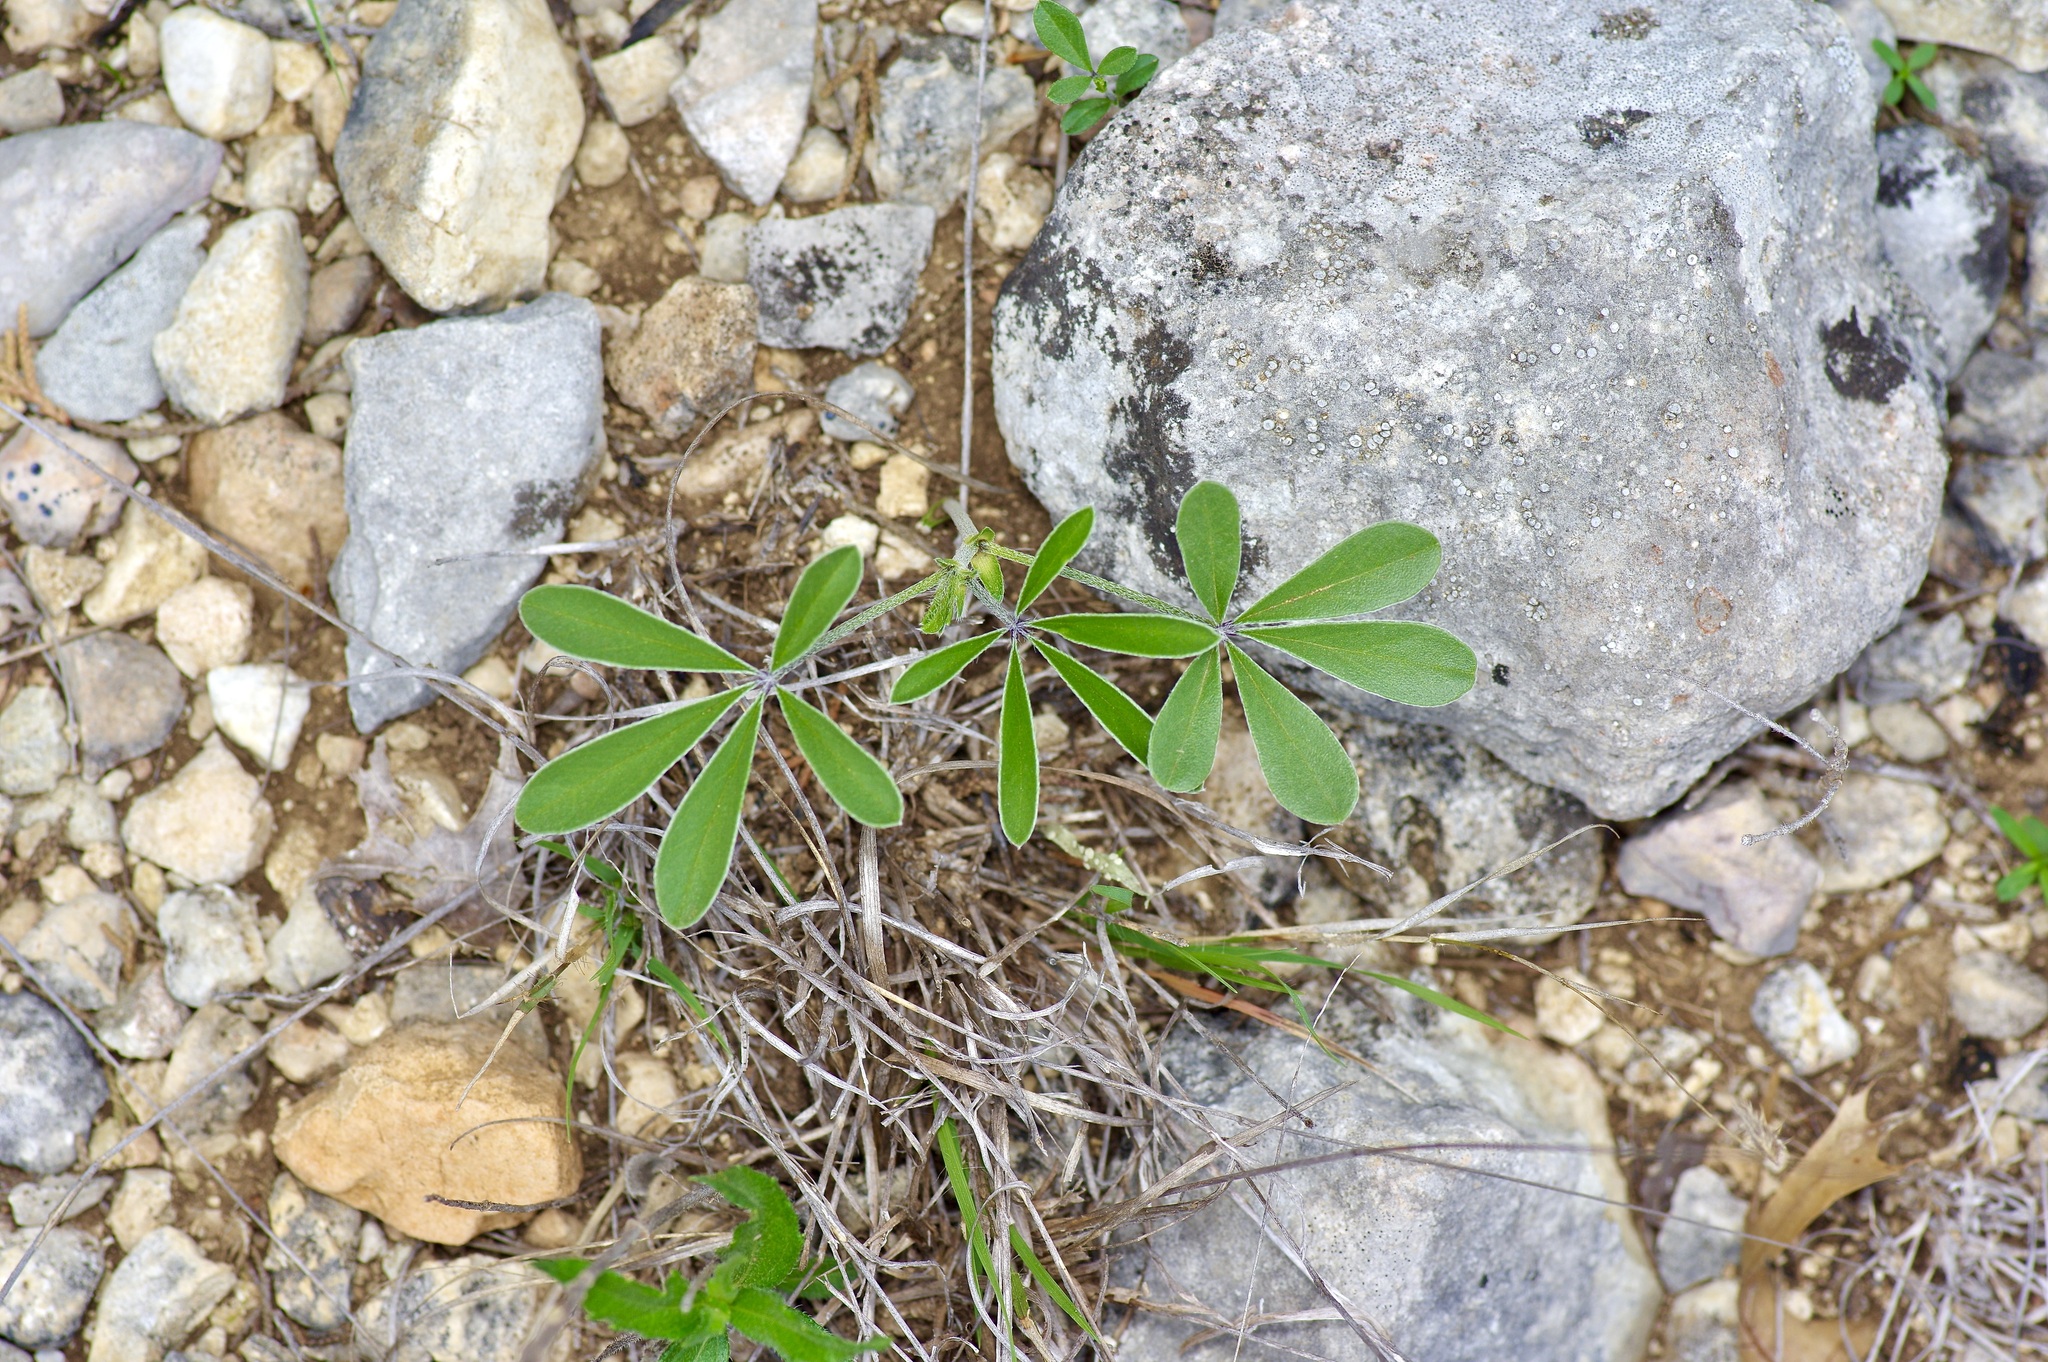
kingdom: Plantae
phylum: Tracheophyta
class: Magnoliopsida
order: Fabales
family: Fabaceae
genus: Pediomelum
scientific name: Pediomelum latestipulatum
